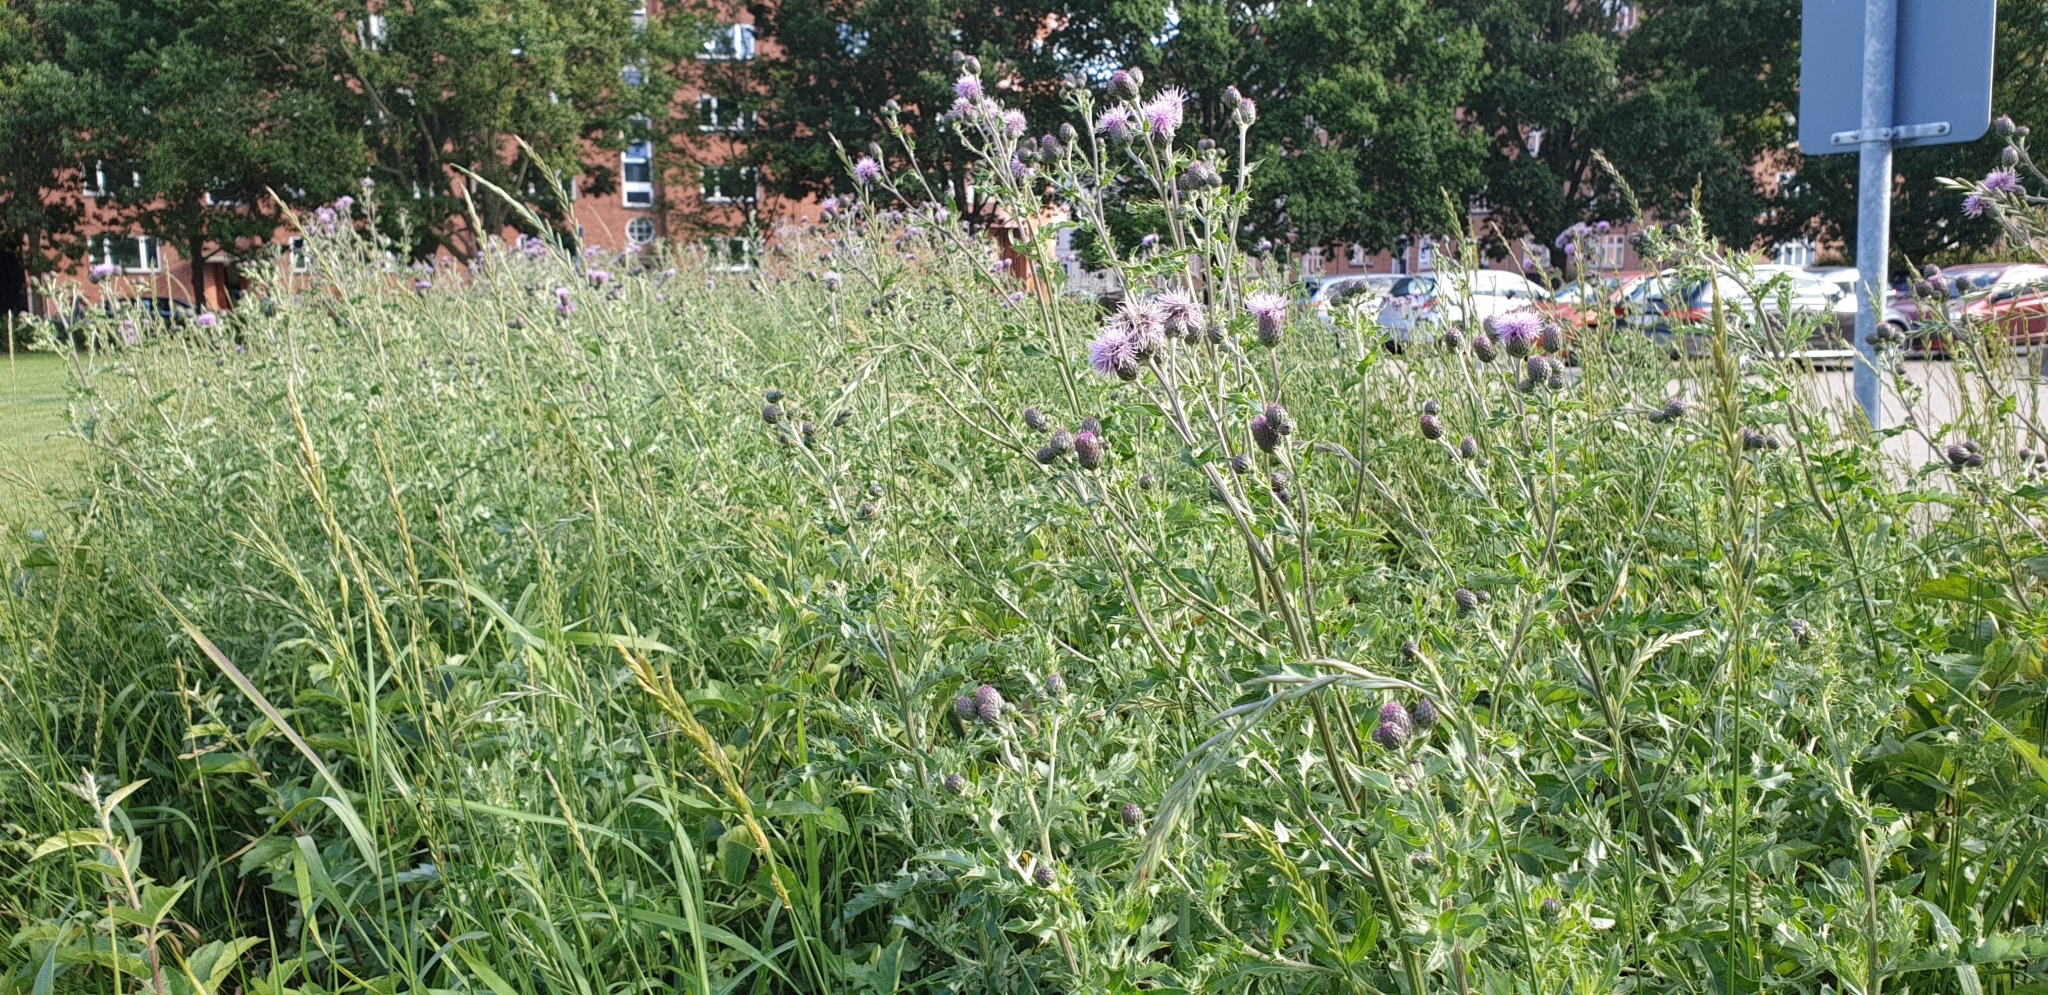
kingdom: Plantae
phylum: Tracheophyta
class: Magnoliopsida
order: Asterales
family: Asteraceae
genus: Cirsium
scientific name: Cirsium arvense
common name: Creeping thistle
